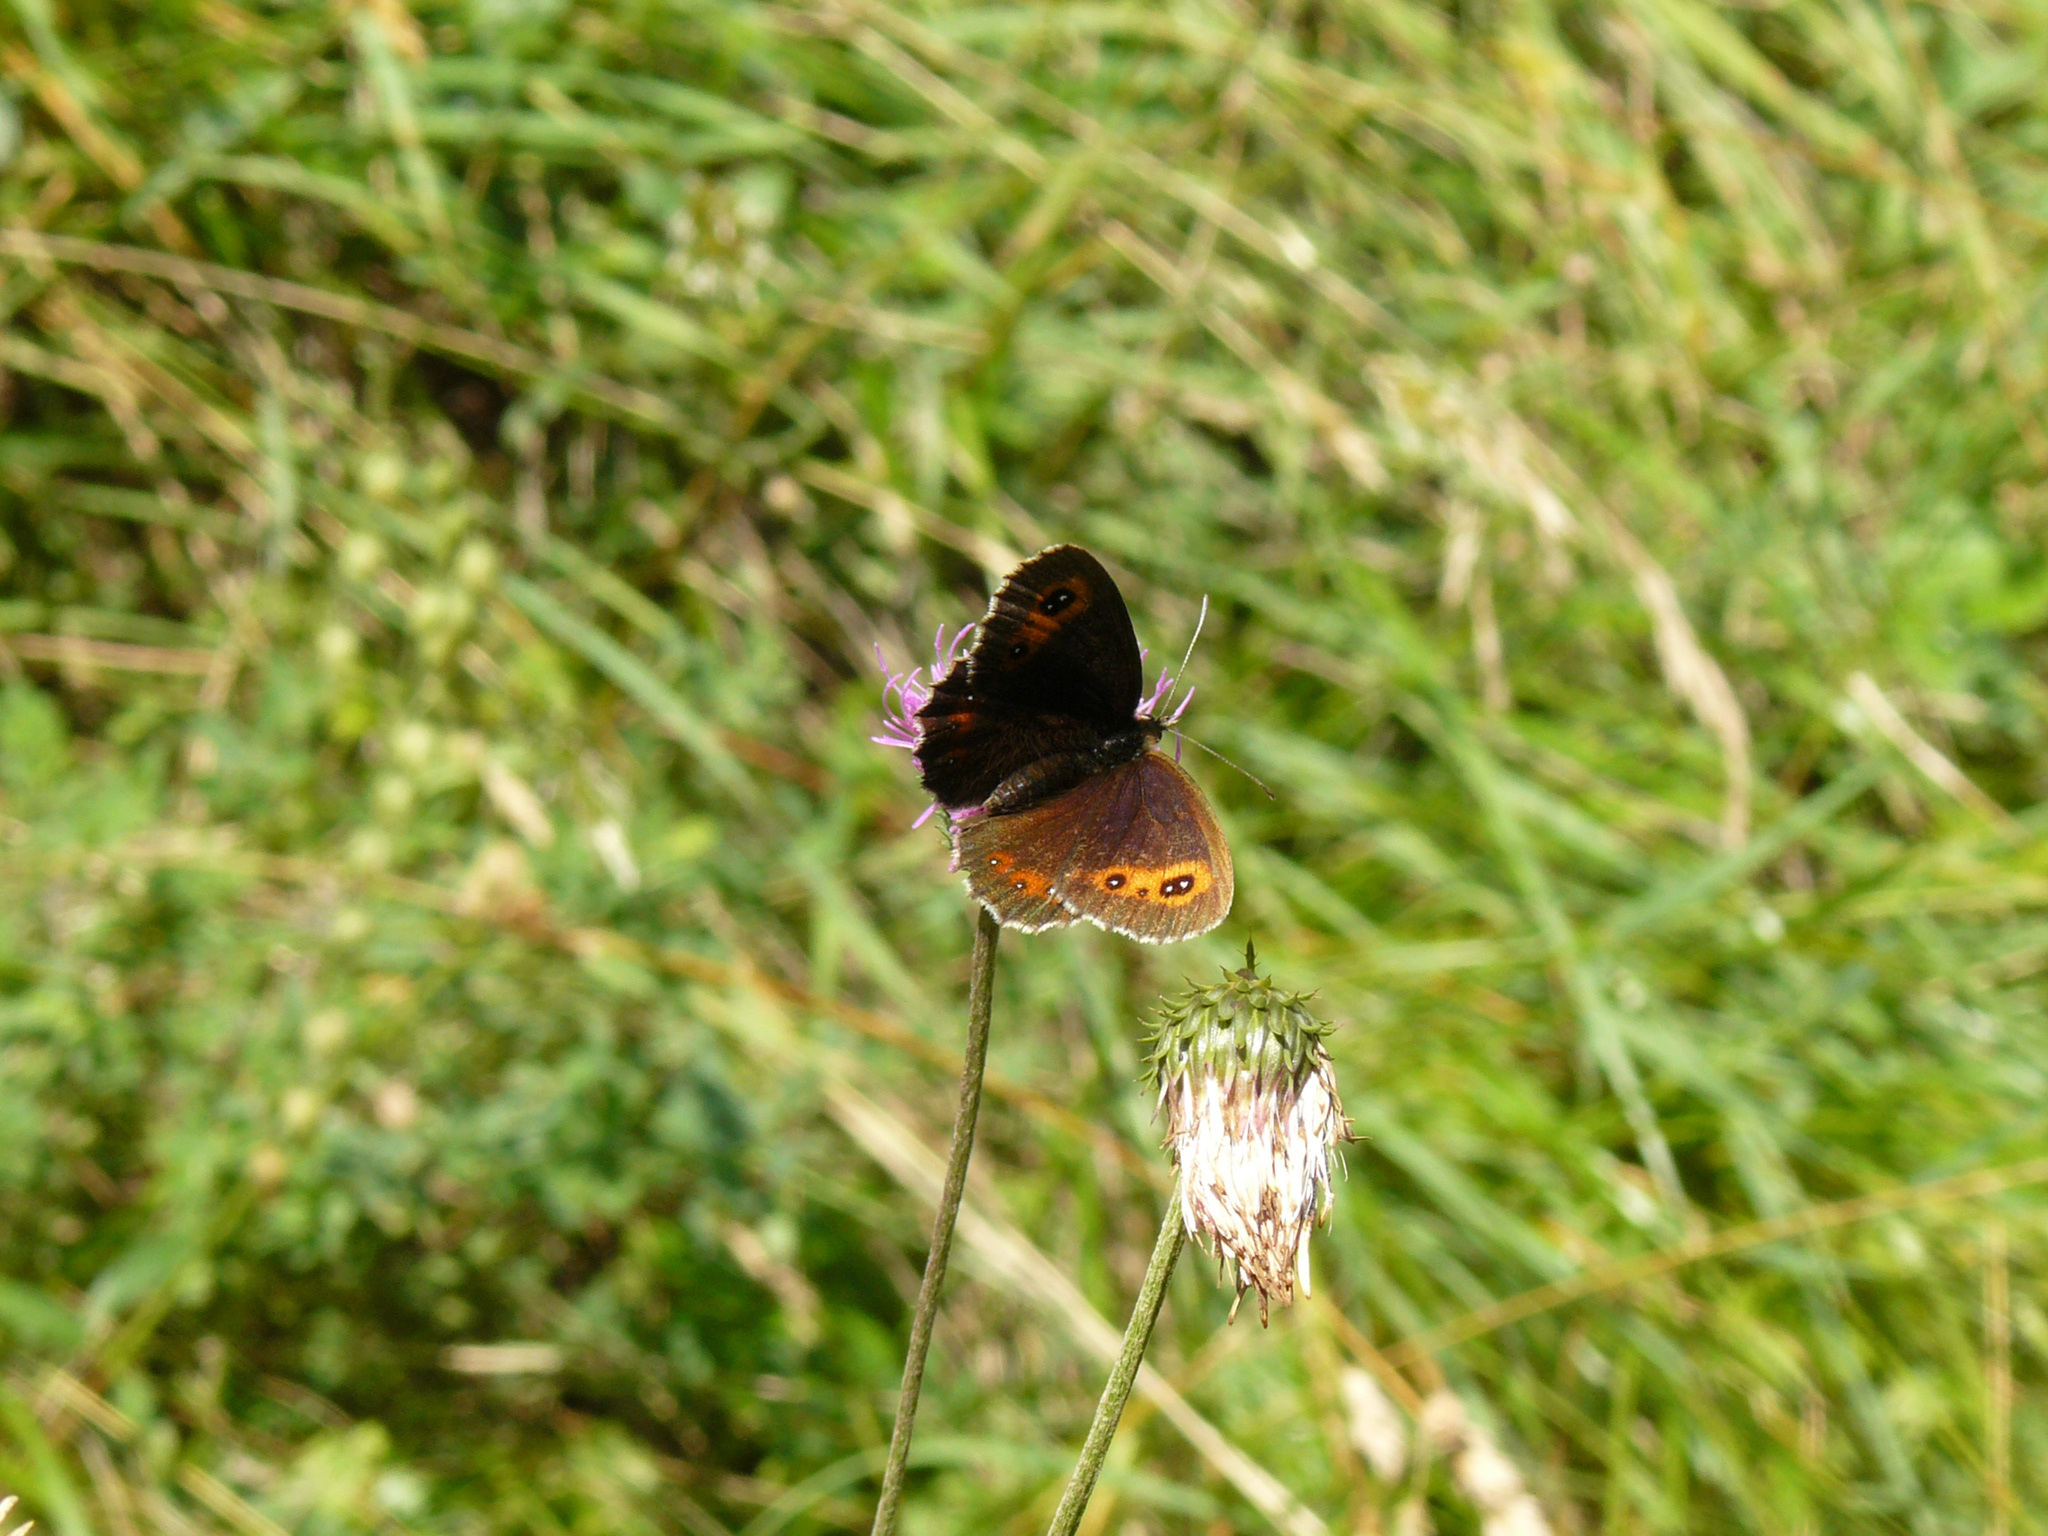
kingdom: Animalia
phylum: Arthropoda
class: Insecta
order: Lepidoptera
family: Nymphalidae
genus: Erebia
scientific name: Erebia aethiops
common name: Scotch argus
